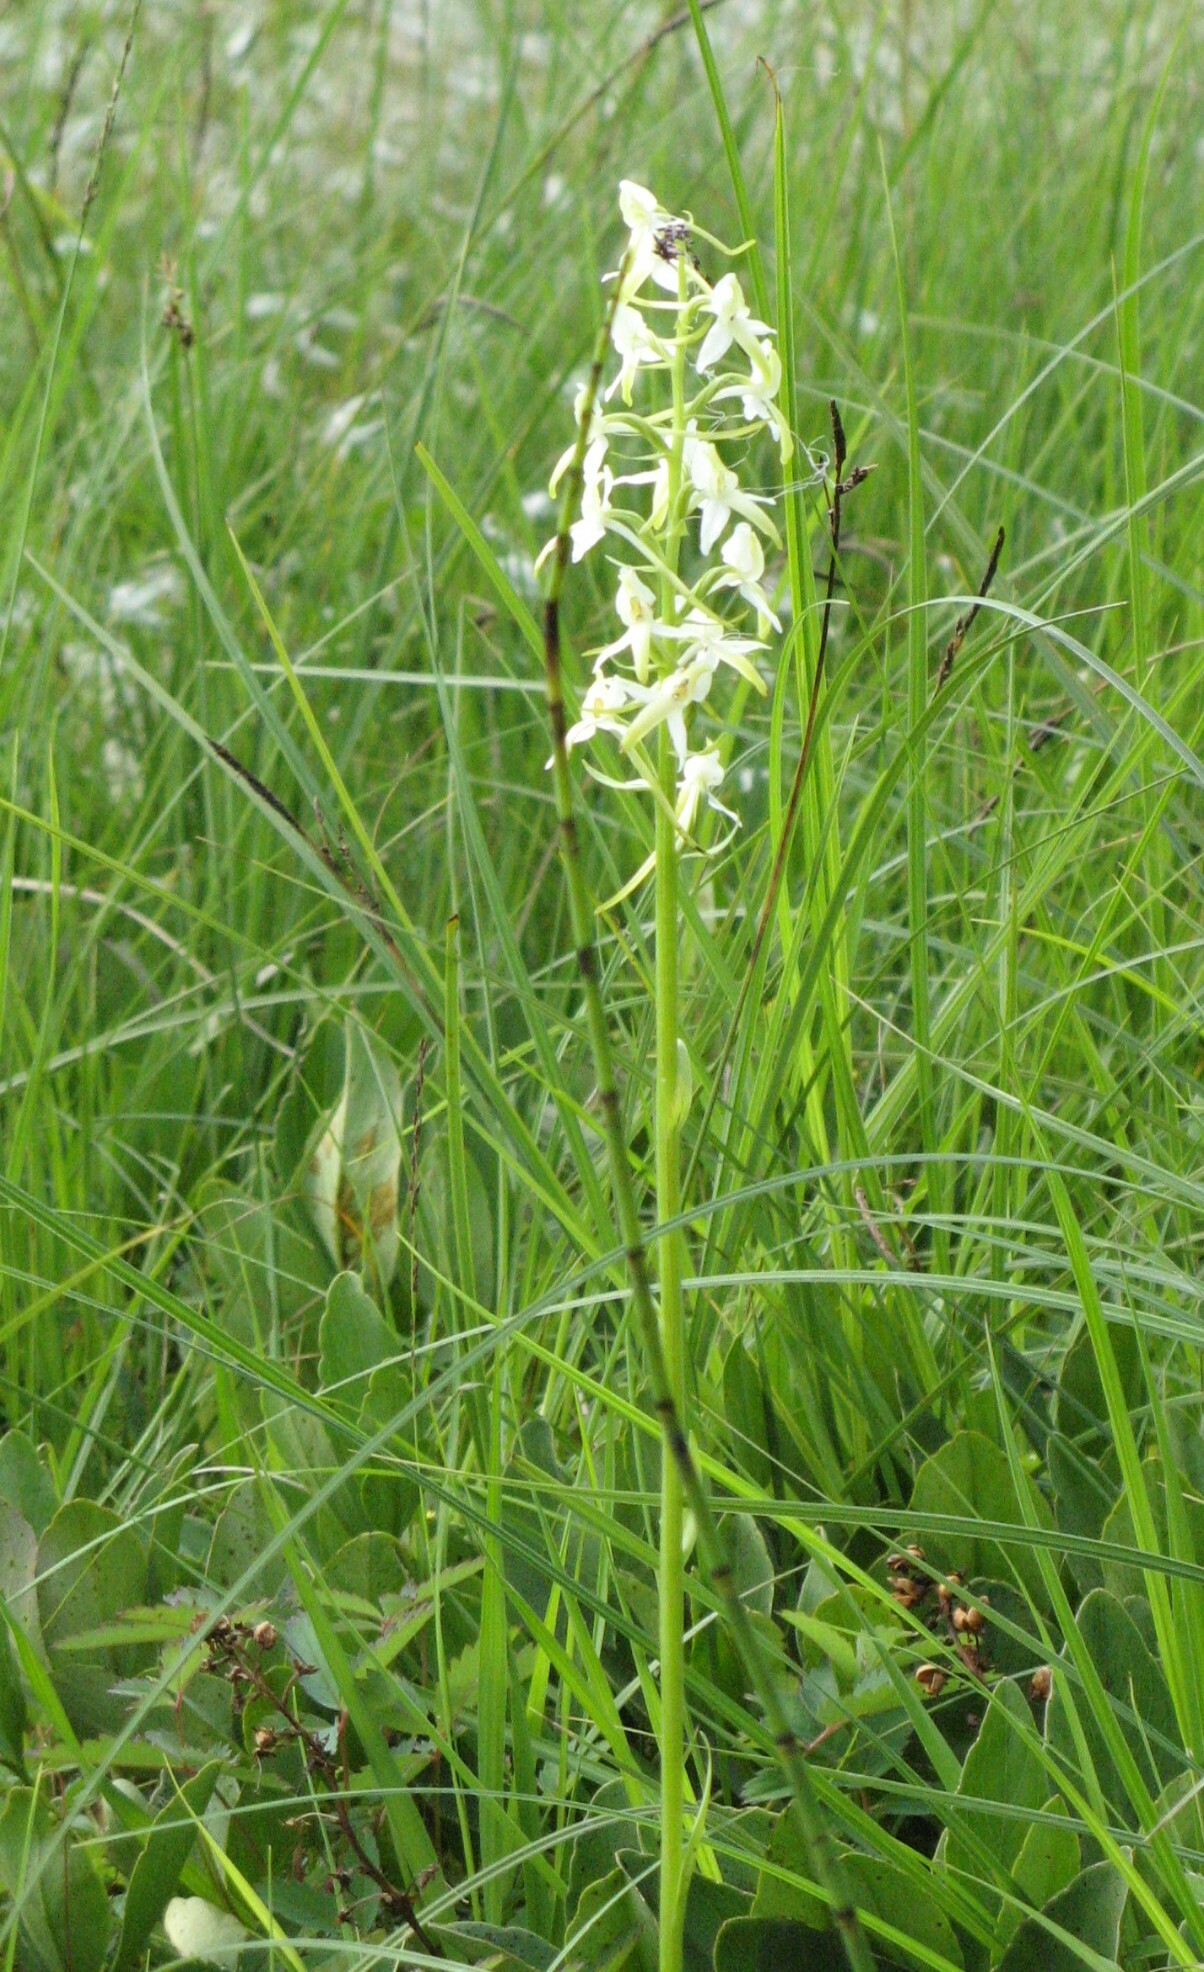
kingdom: Plantae
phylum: Tracheophyta
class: Liliopsida
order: Asparagales
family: Orchidaceae
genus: Platanthera
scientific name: Platanthera bifolia
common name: Lesser butterfly-orchid
